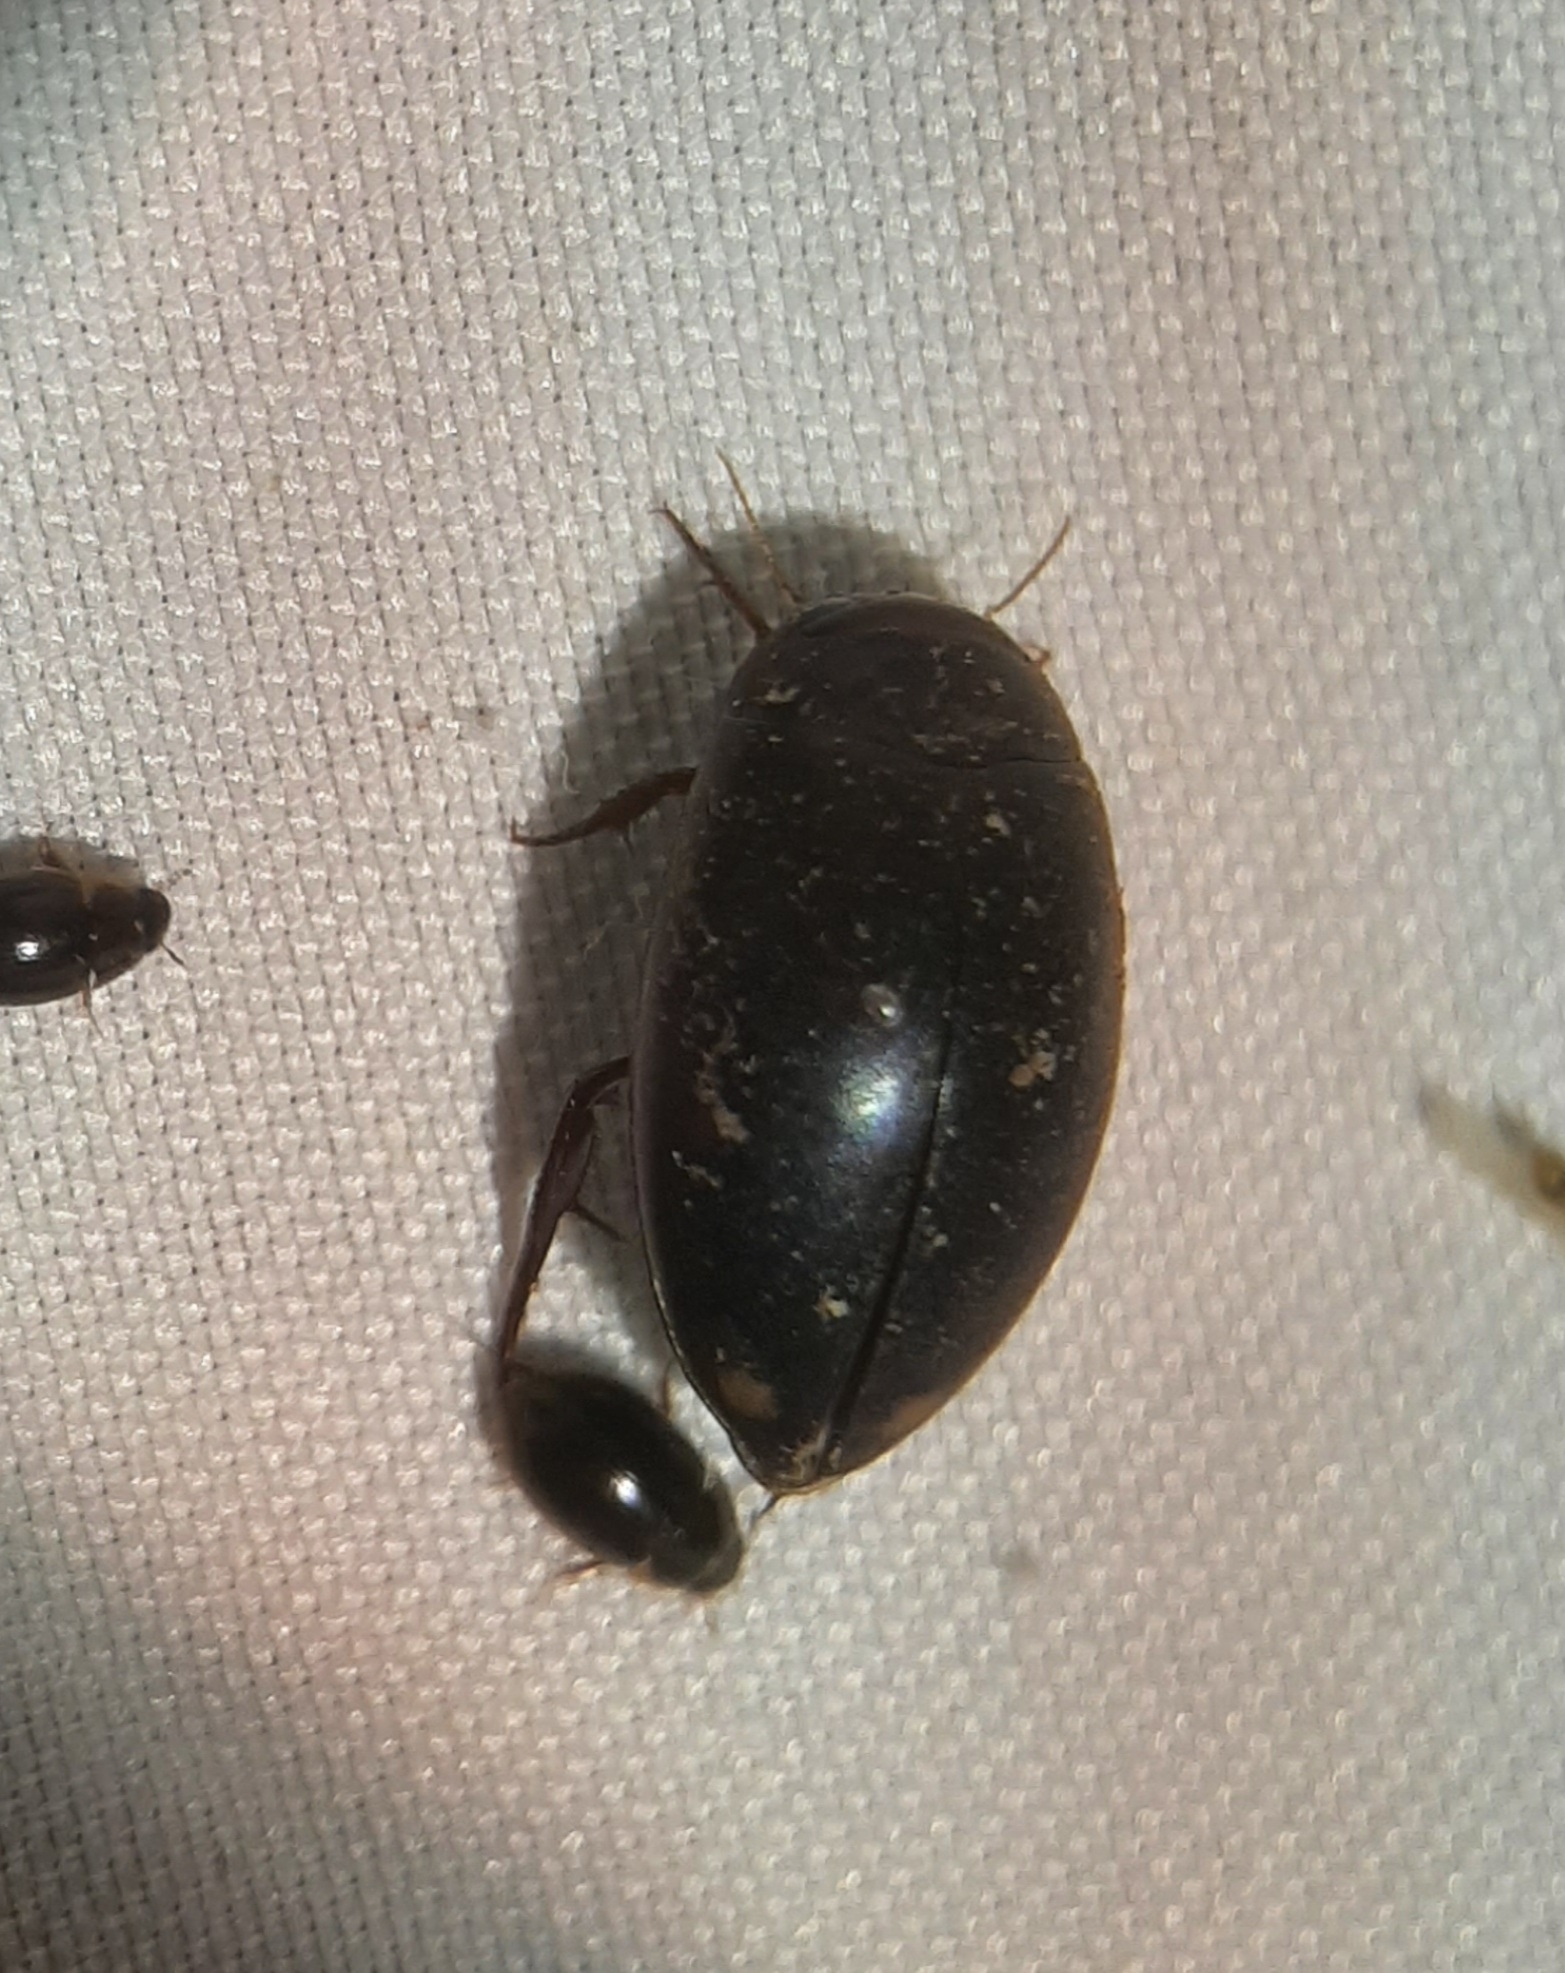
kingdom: Animalia
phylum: Arthropoda
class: Insecta
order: Coleoptera
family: Dytiscidae
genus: Ilybius
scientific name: Ilybius
